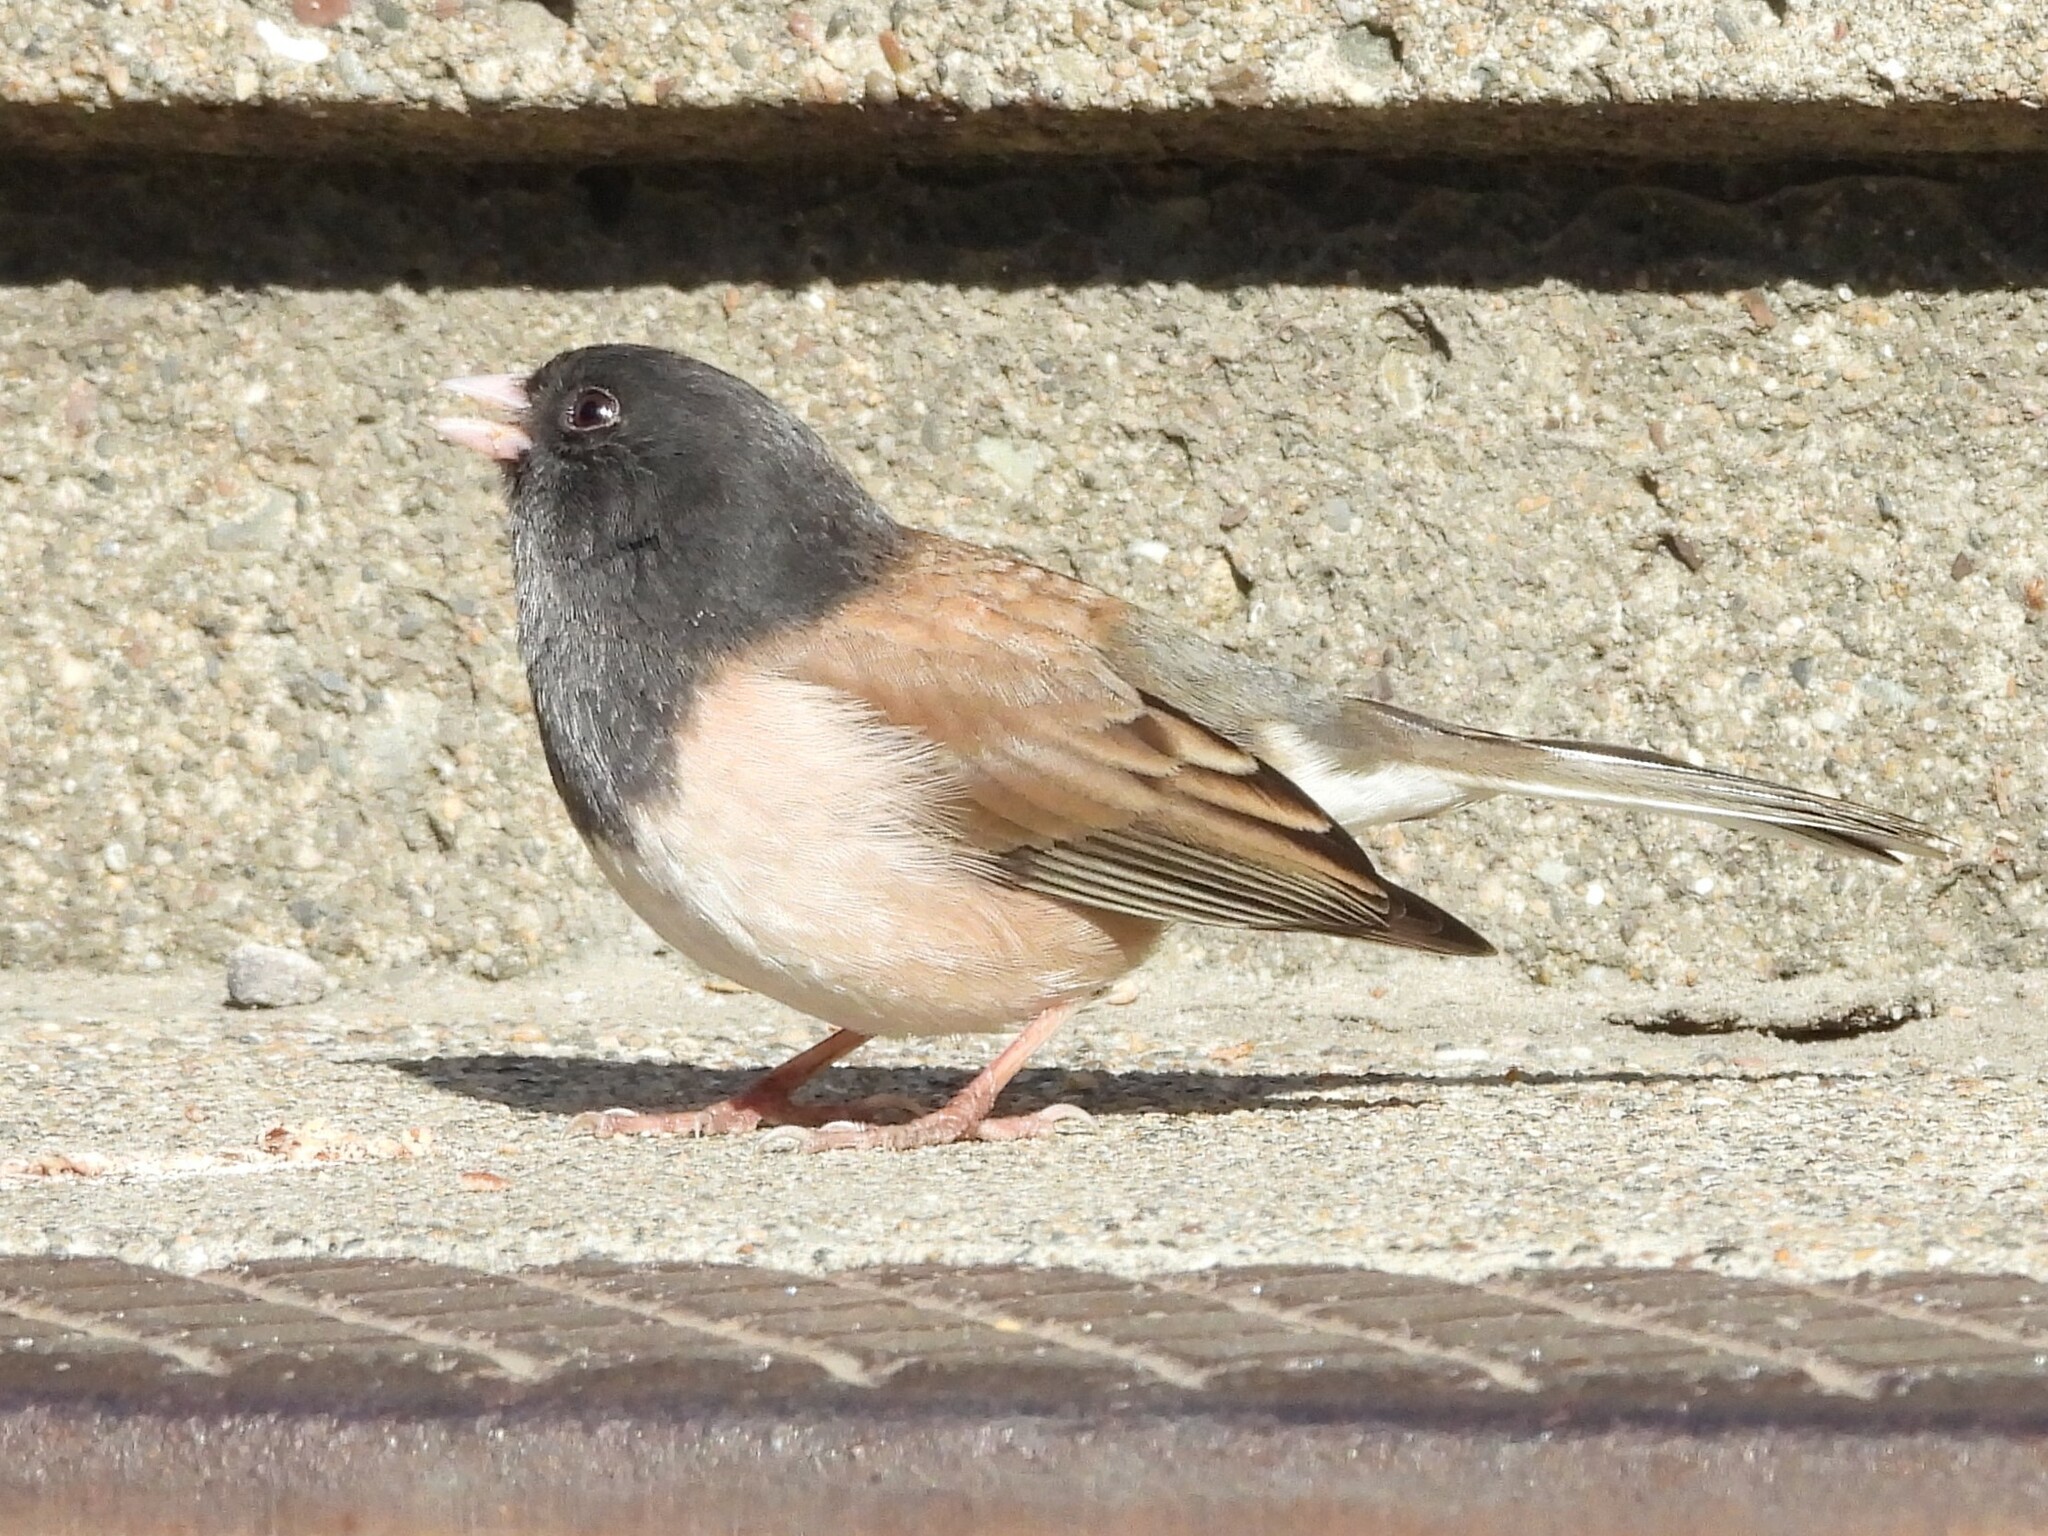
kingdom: Animalia
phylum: Chordata
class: Aves
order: Passeriformes
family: Passerellidae
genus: Junco
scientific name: Junco hyemalis
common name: Dark-eyed junco
